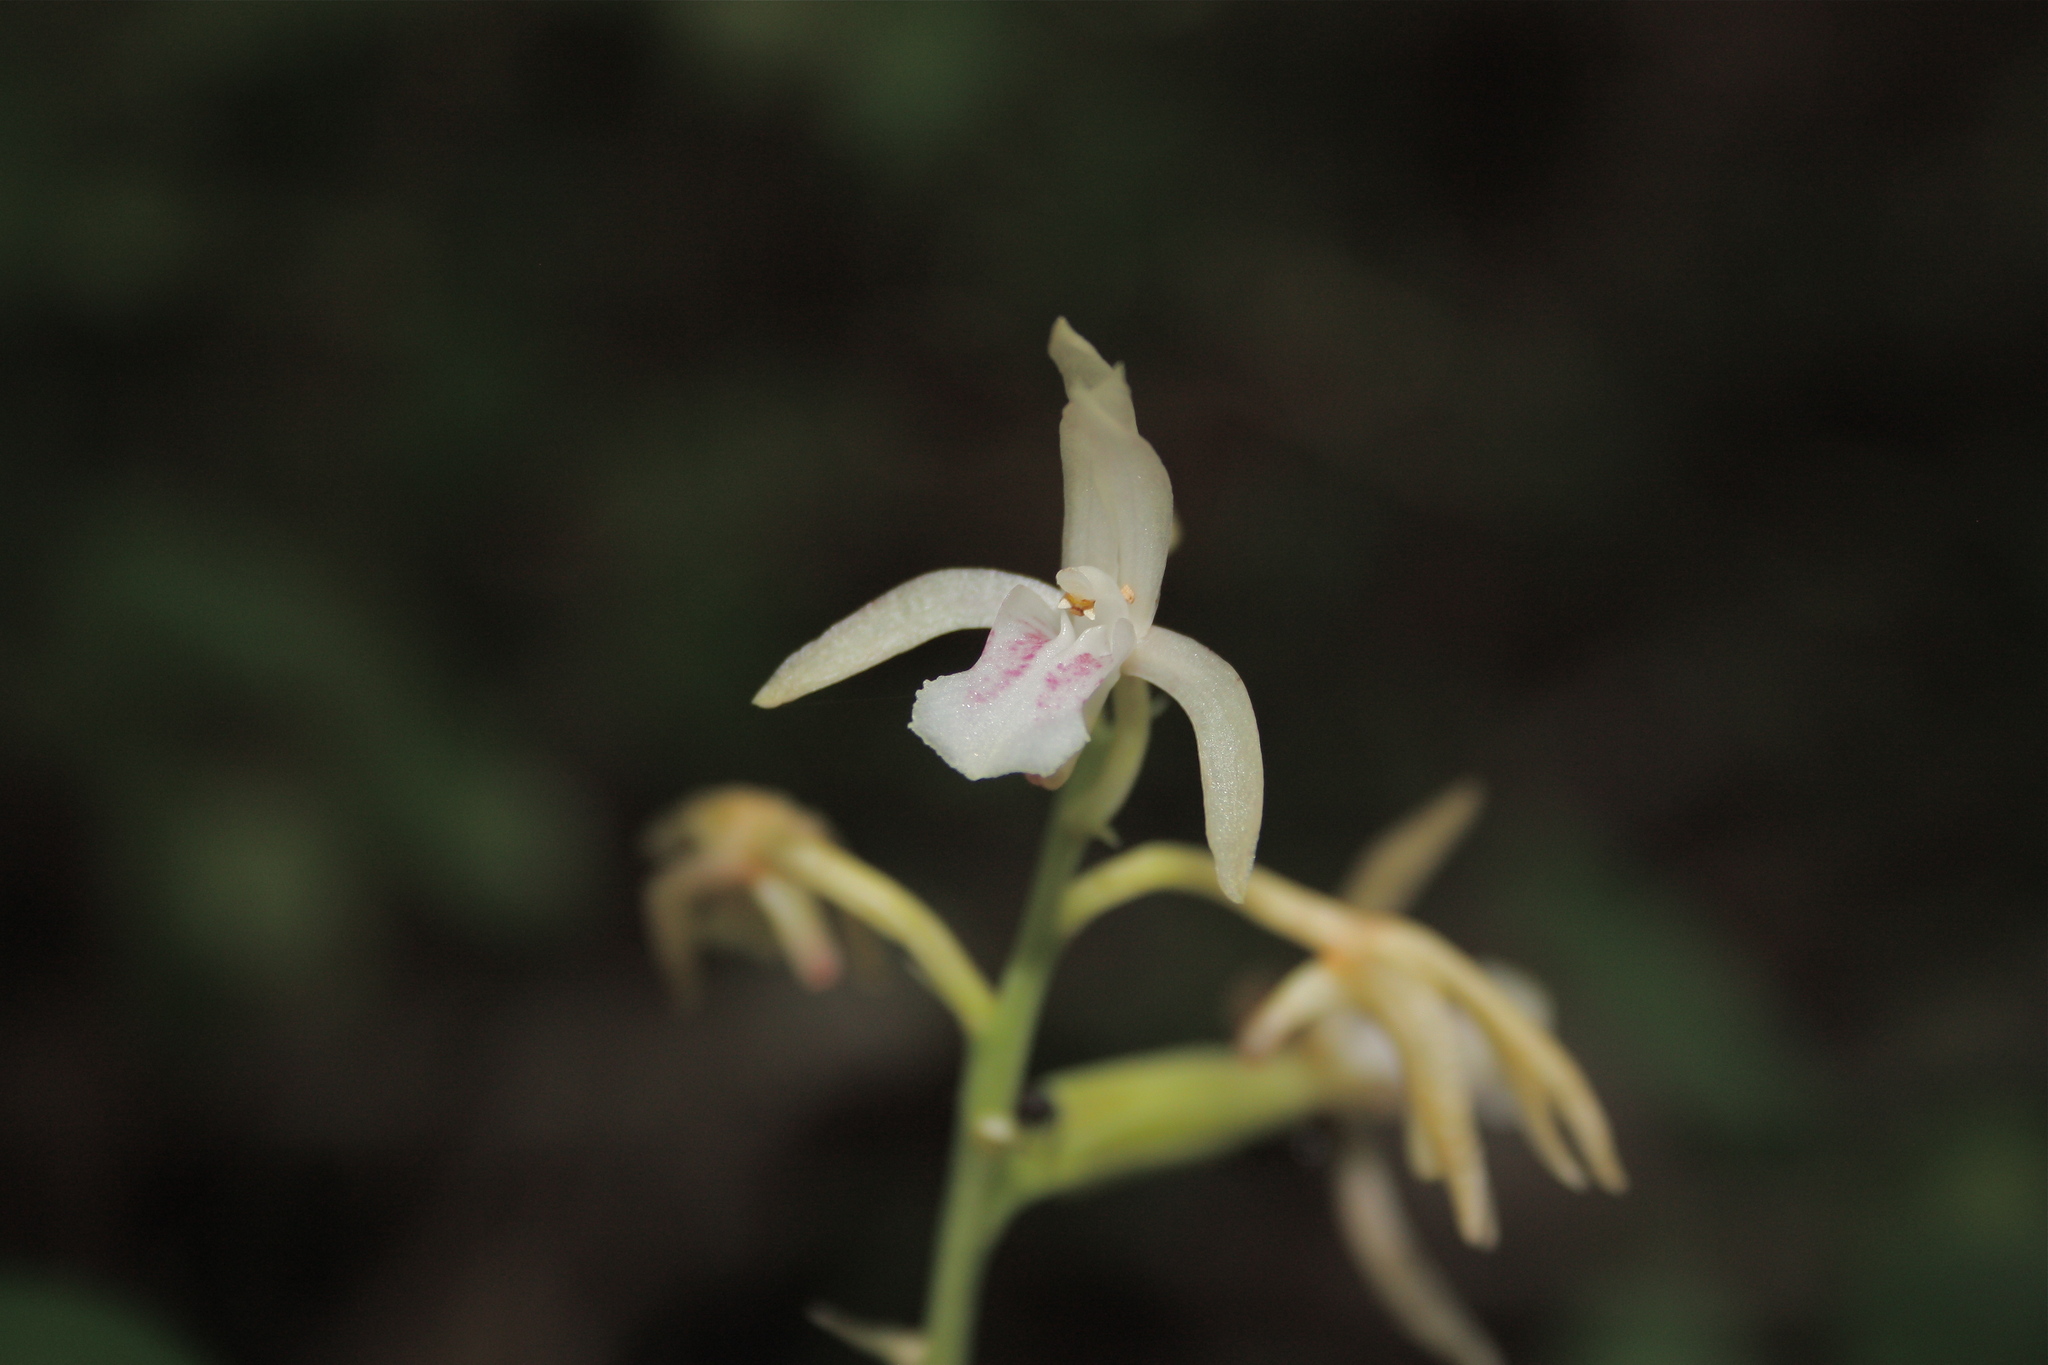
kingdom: Plantae
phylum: Tracheophyta
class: Liliopsida
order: Asparagales
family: Orchidaceae
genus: Eulophia
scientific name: Eulophia maculata
